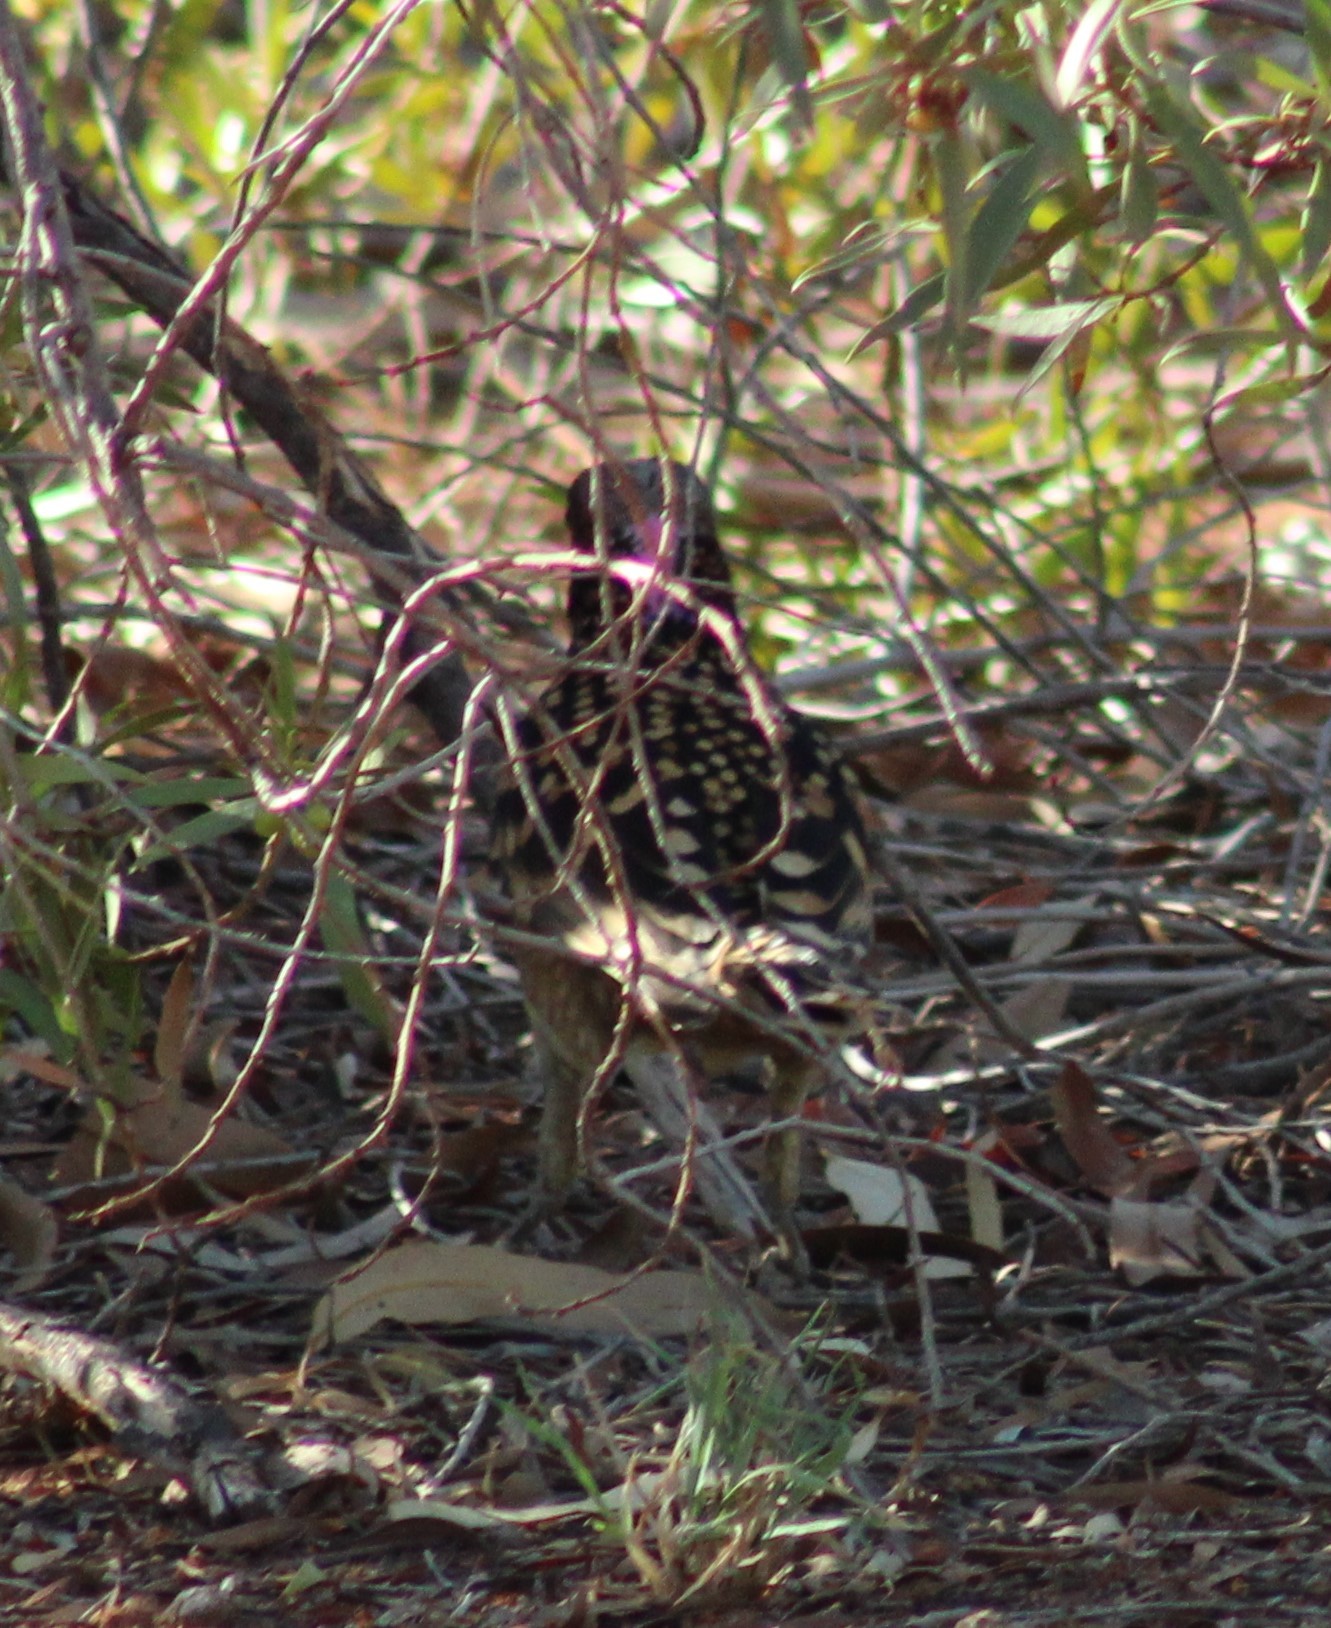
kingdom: Animalia
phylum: Chordata
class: Aves
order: Passeriformes
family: Ptilonorhynchidae
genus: Chlamydera
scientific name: Chlamydera guttata
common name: Western bowerbird
